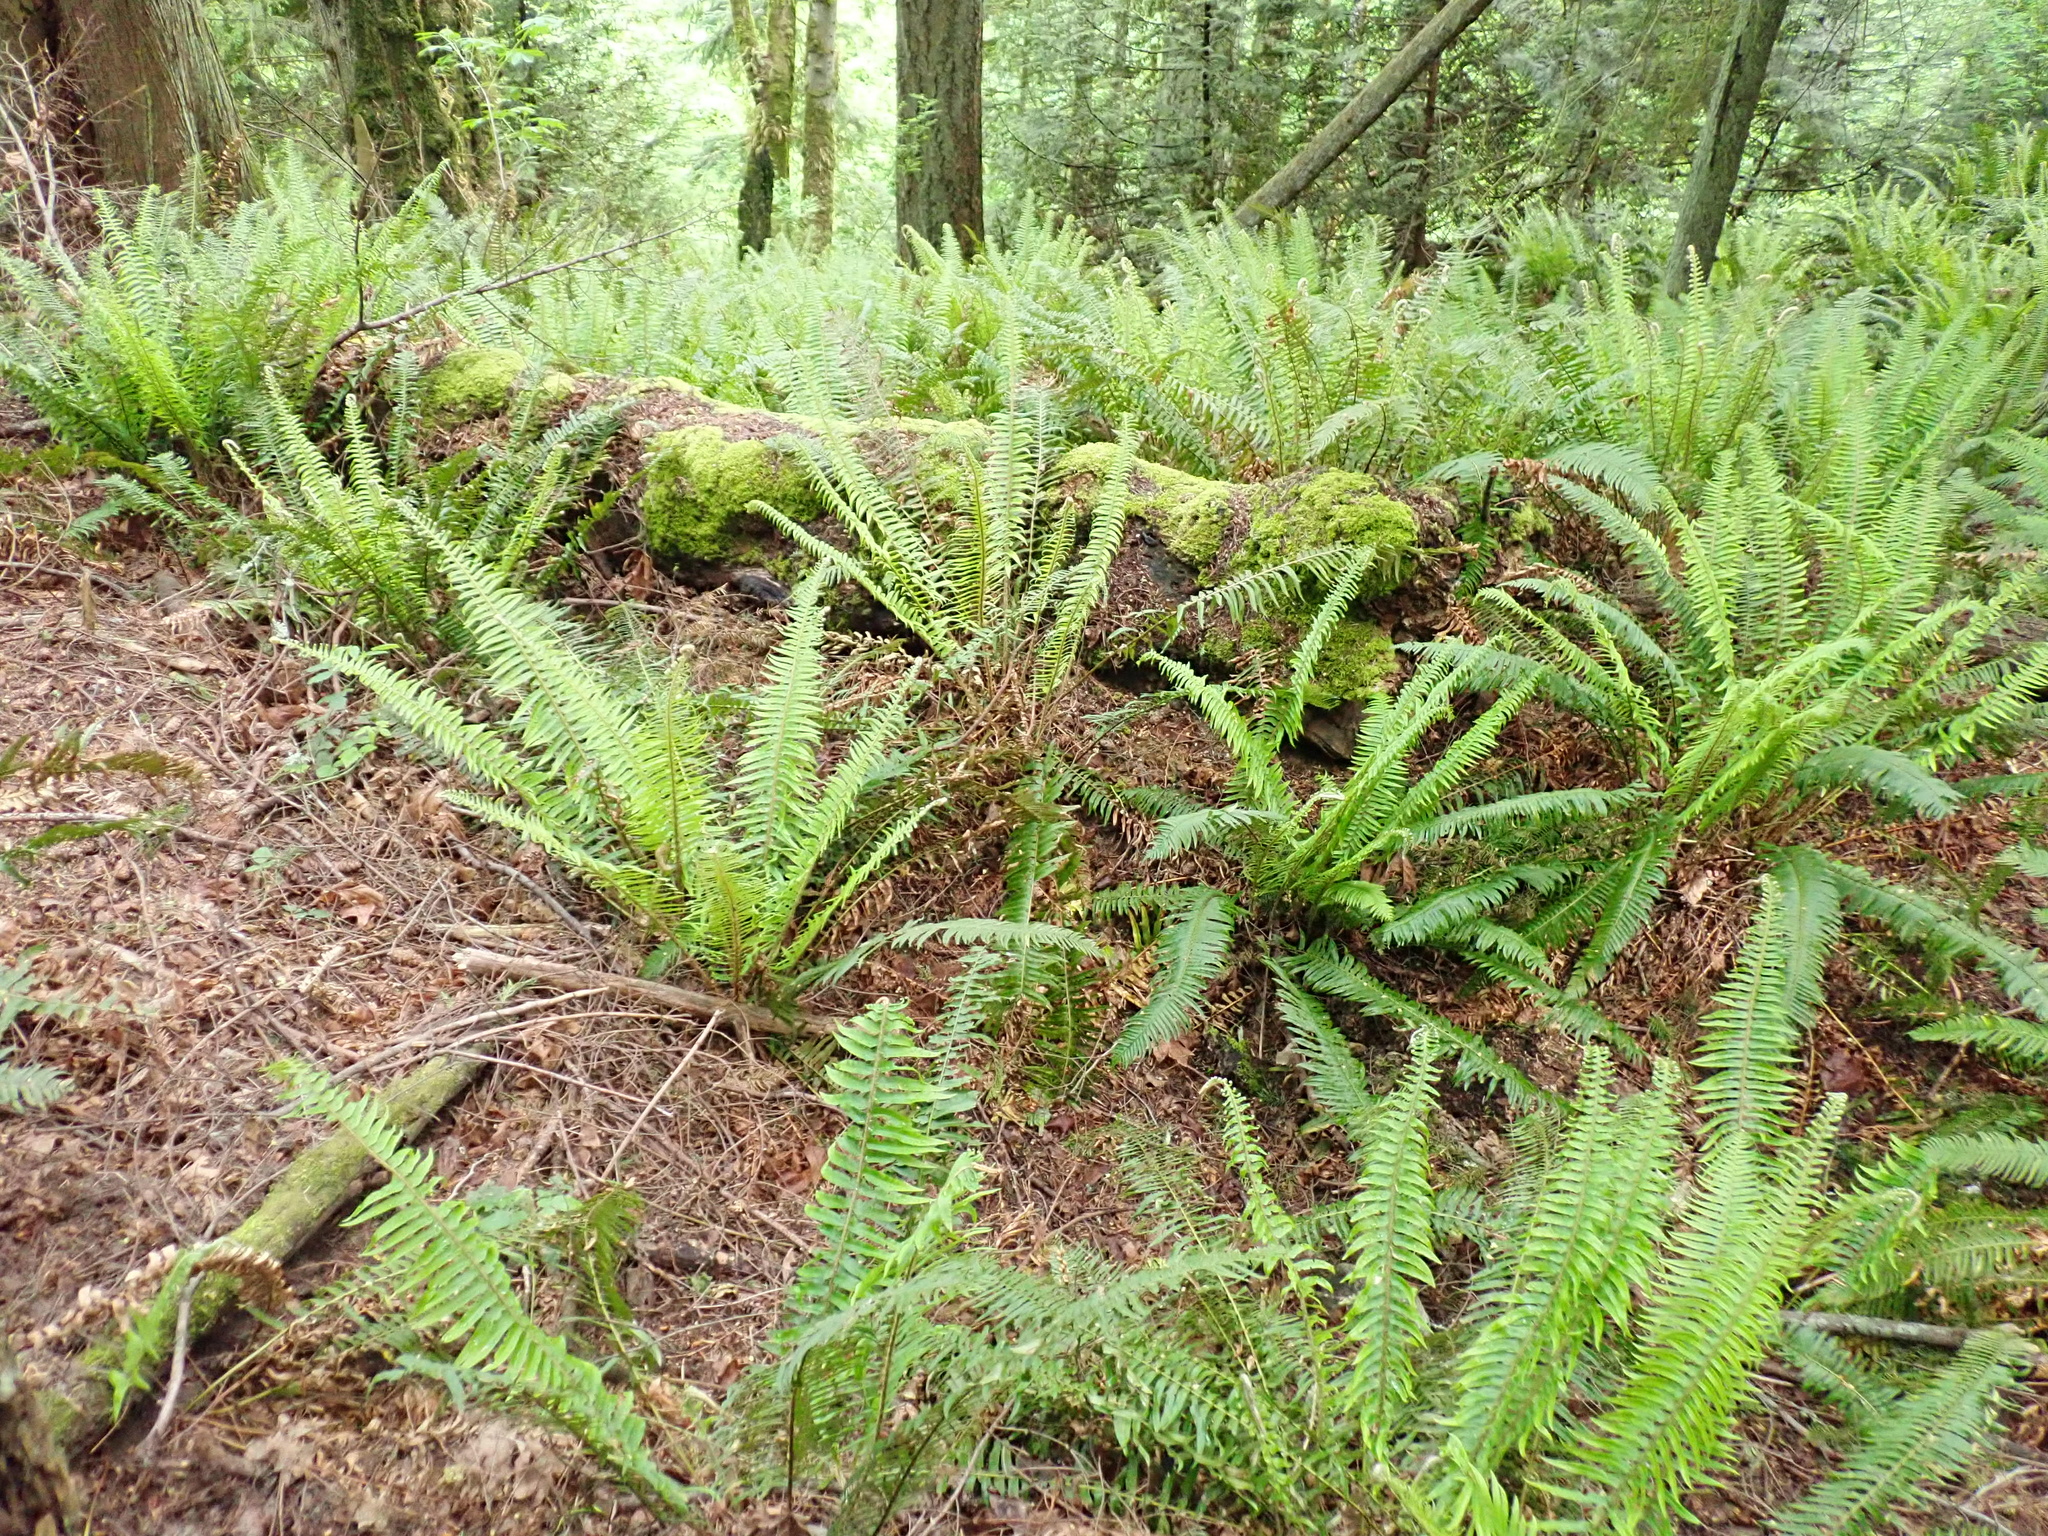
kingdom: Plantae
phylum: Tracheophyta
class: Polypodiopsida
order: Polypodiales
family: Dryopteridaceae
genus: Polystichum
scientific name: Polystichum munitum
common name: Western sword-fern
